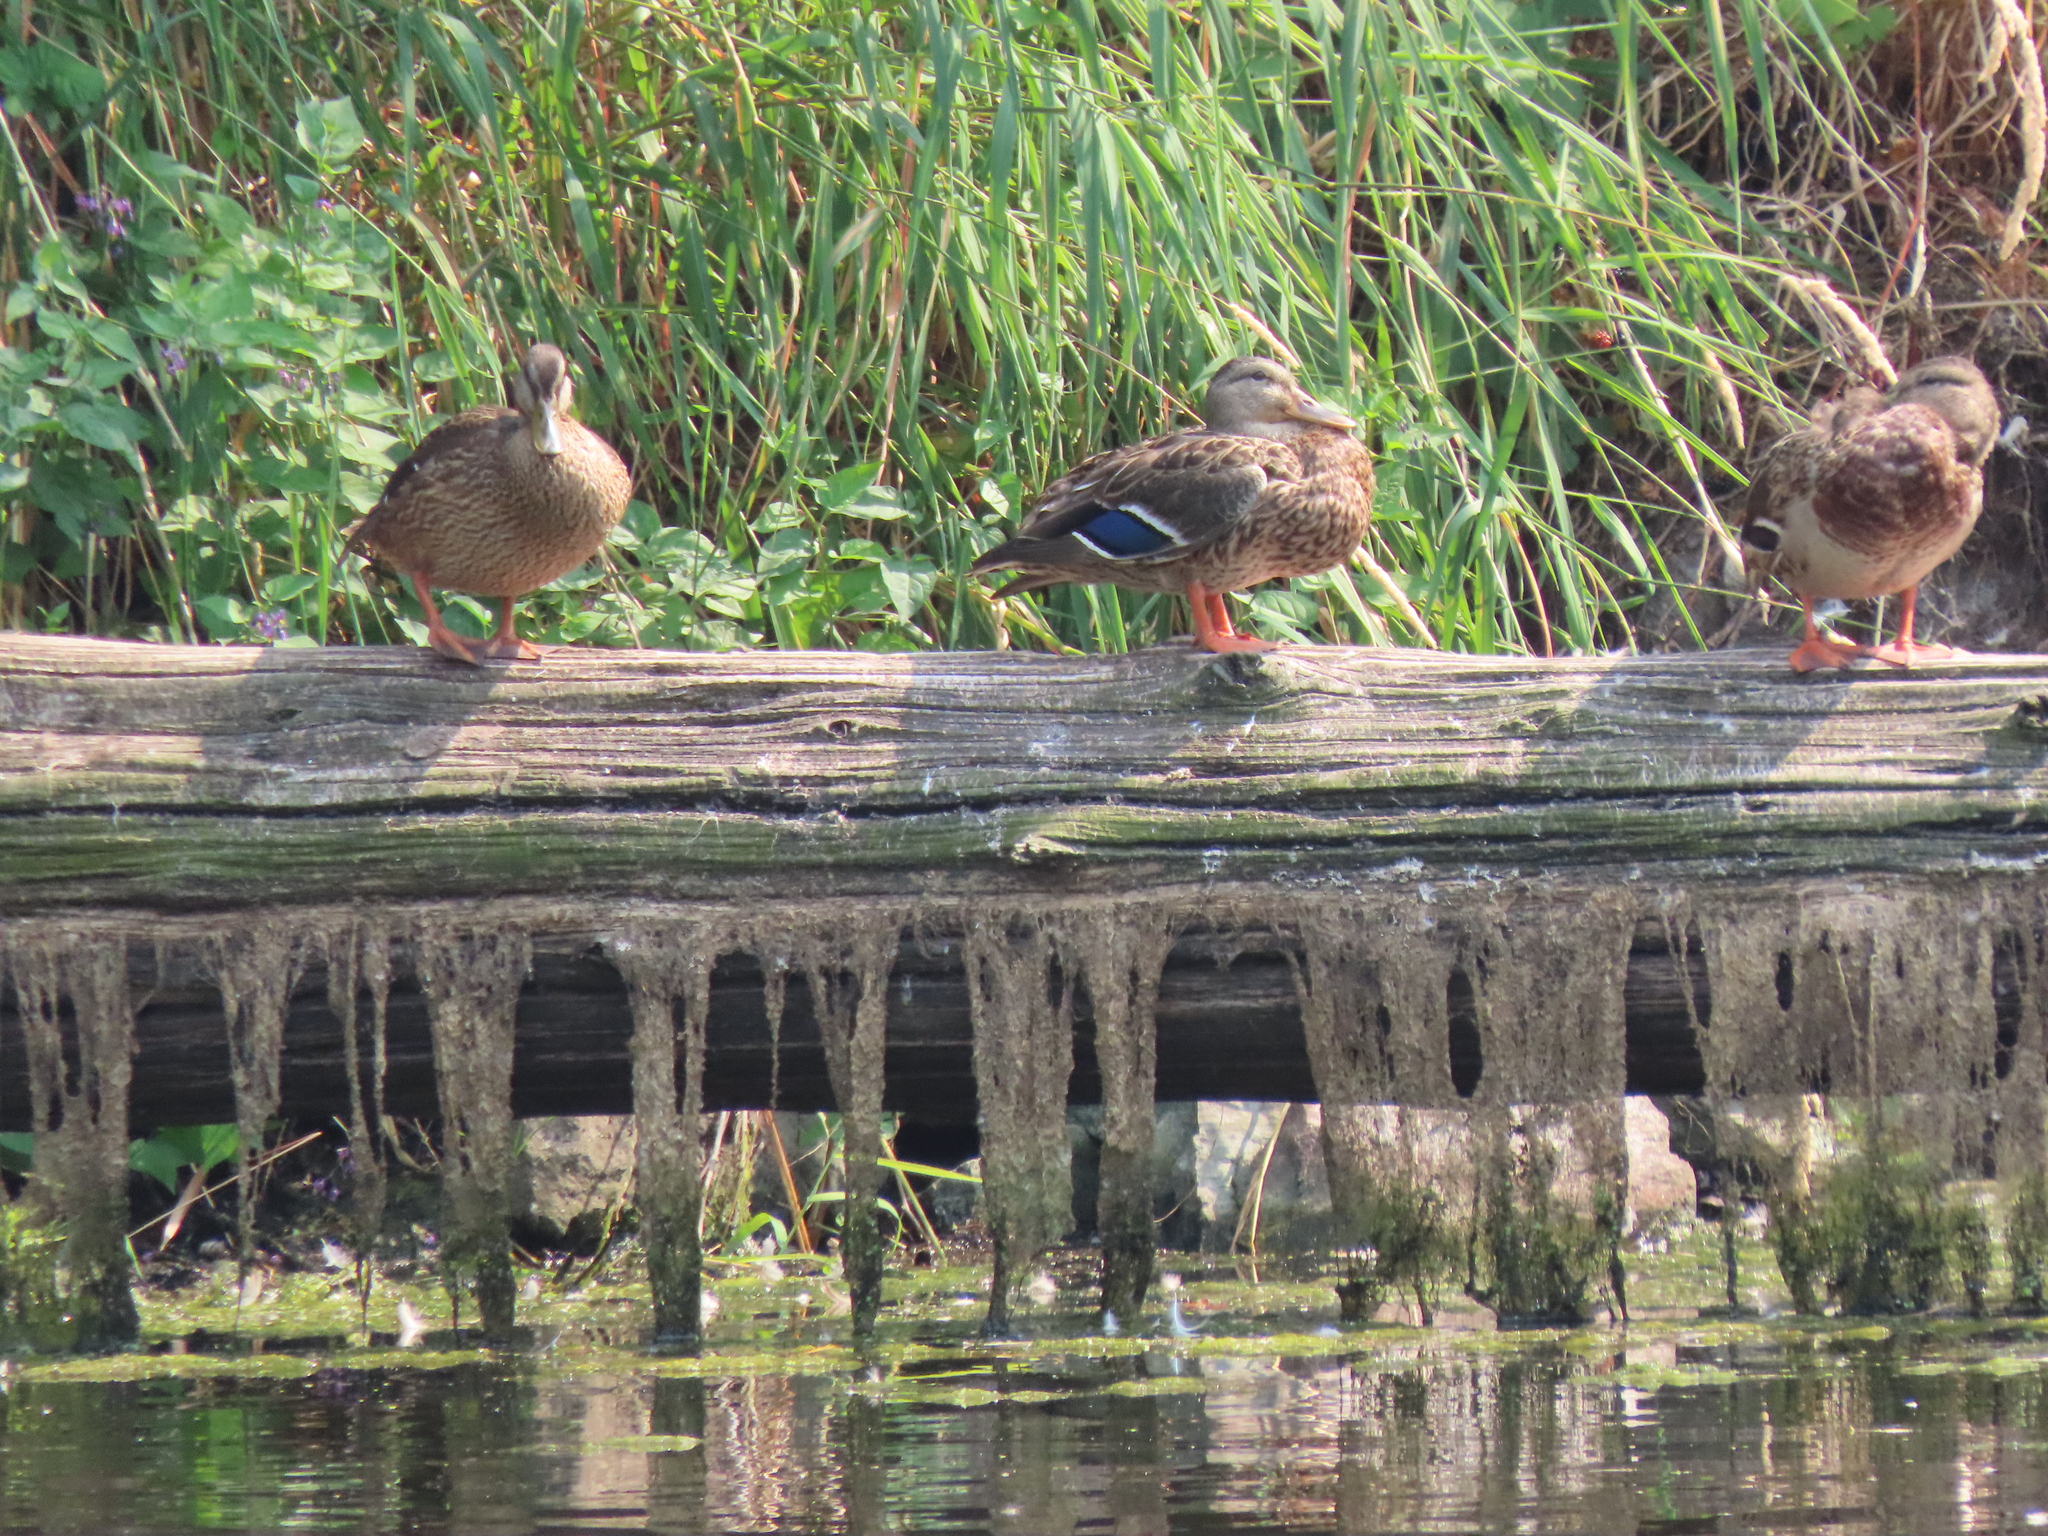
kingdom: Animalia
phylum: Chordata
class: Aves
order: Anseriformes
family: Anatidae
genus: Anas
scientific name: Anas platyrhynchos
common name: Mallard
